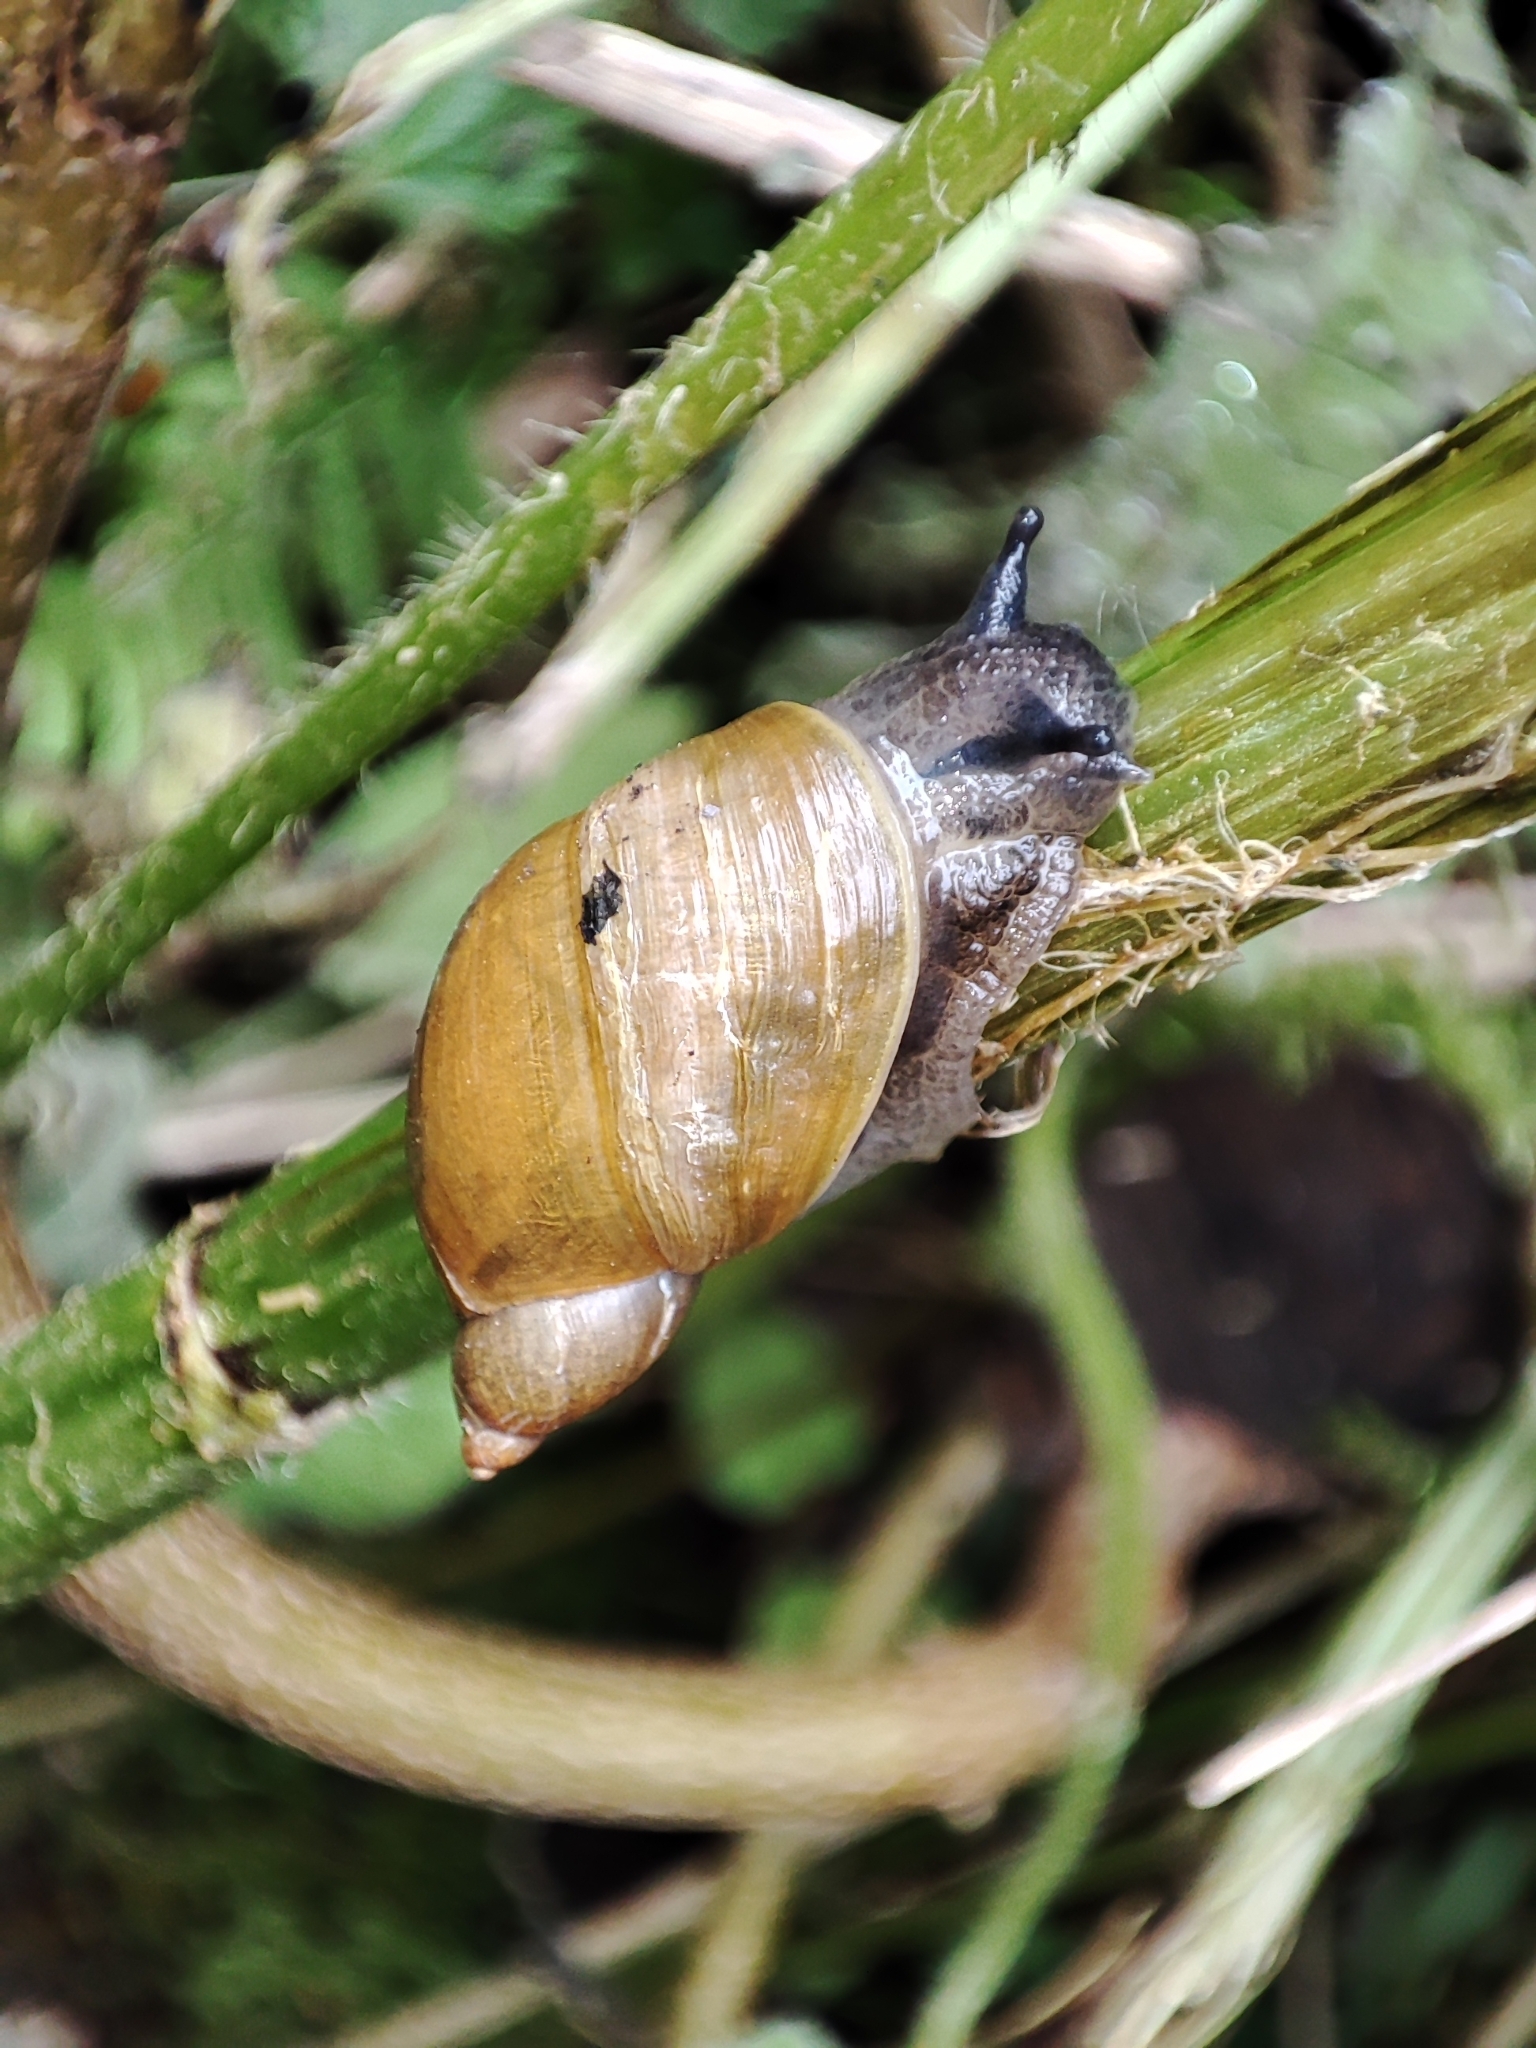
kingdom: Animalia
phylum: Mollusca
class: Gastropoda
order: Stylommatophora
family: Succineidae
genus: Succinea
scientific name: Succinea putris
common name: European ambersnail
